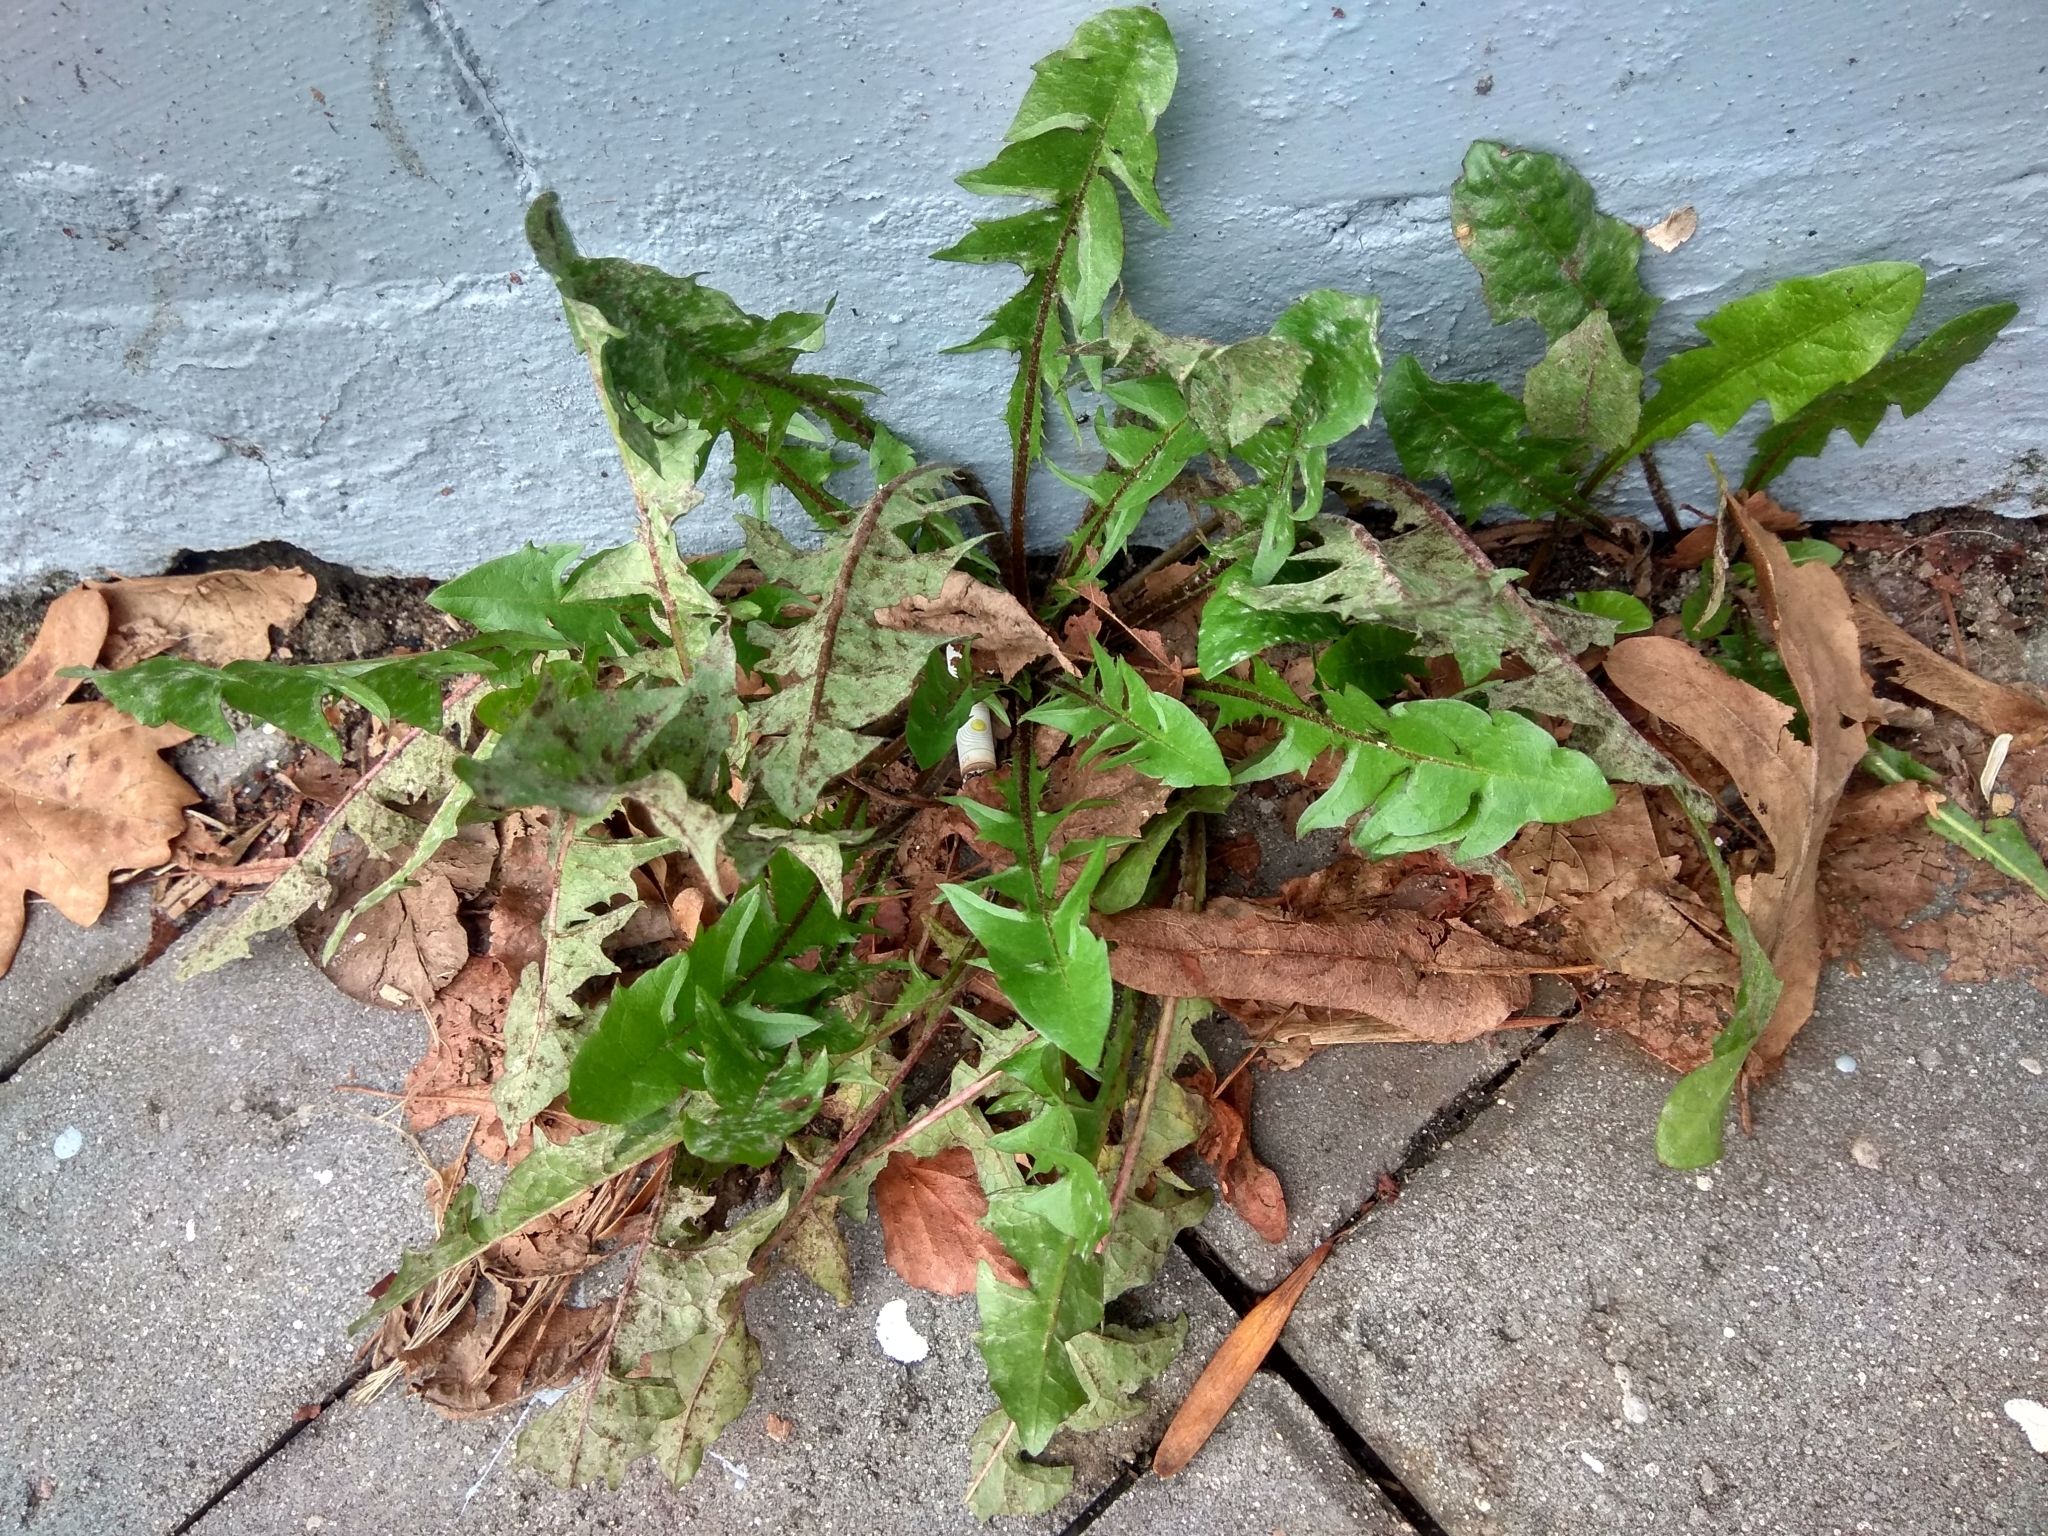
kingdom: Plantae
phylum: Tracheophyta
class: Magnoliopsida
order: Asterales
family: Asteraceae
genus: Taraxacum
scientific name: Taraxacum officinale
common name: Common dandelion
